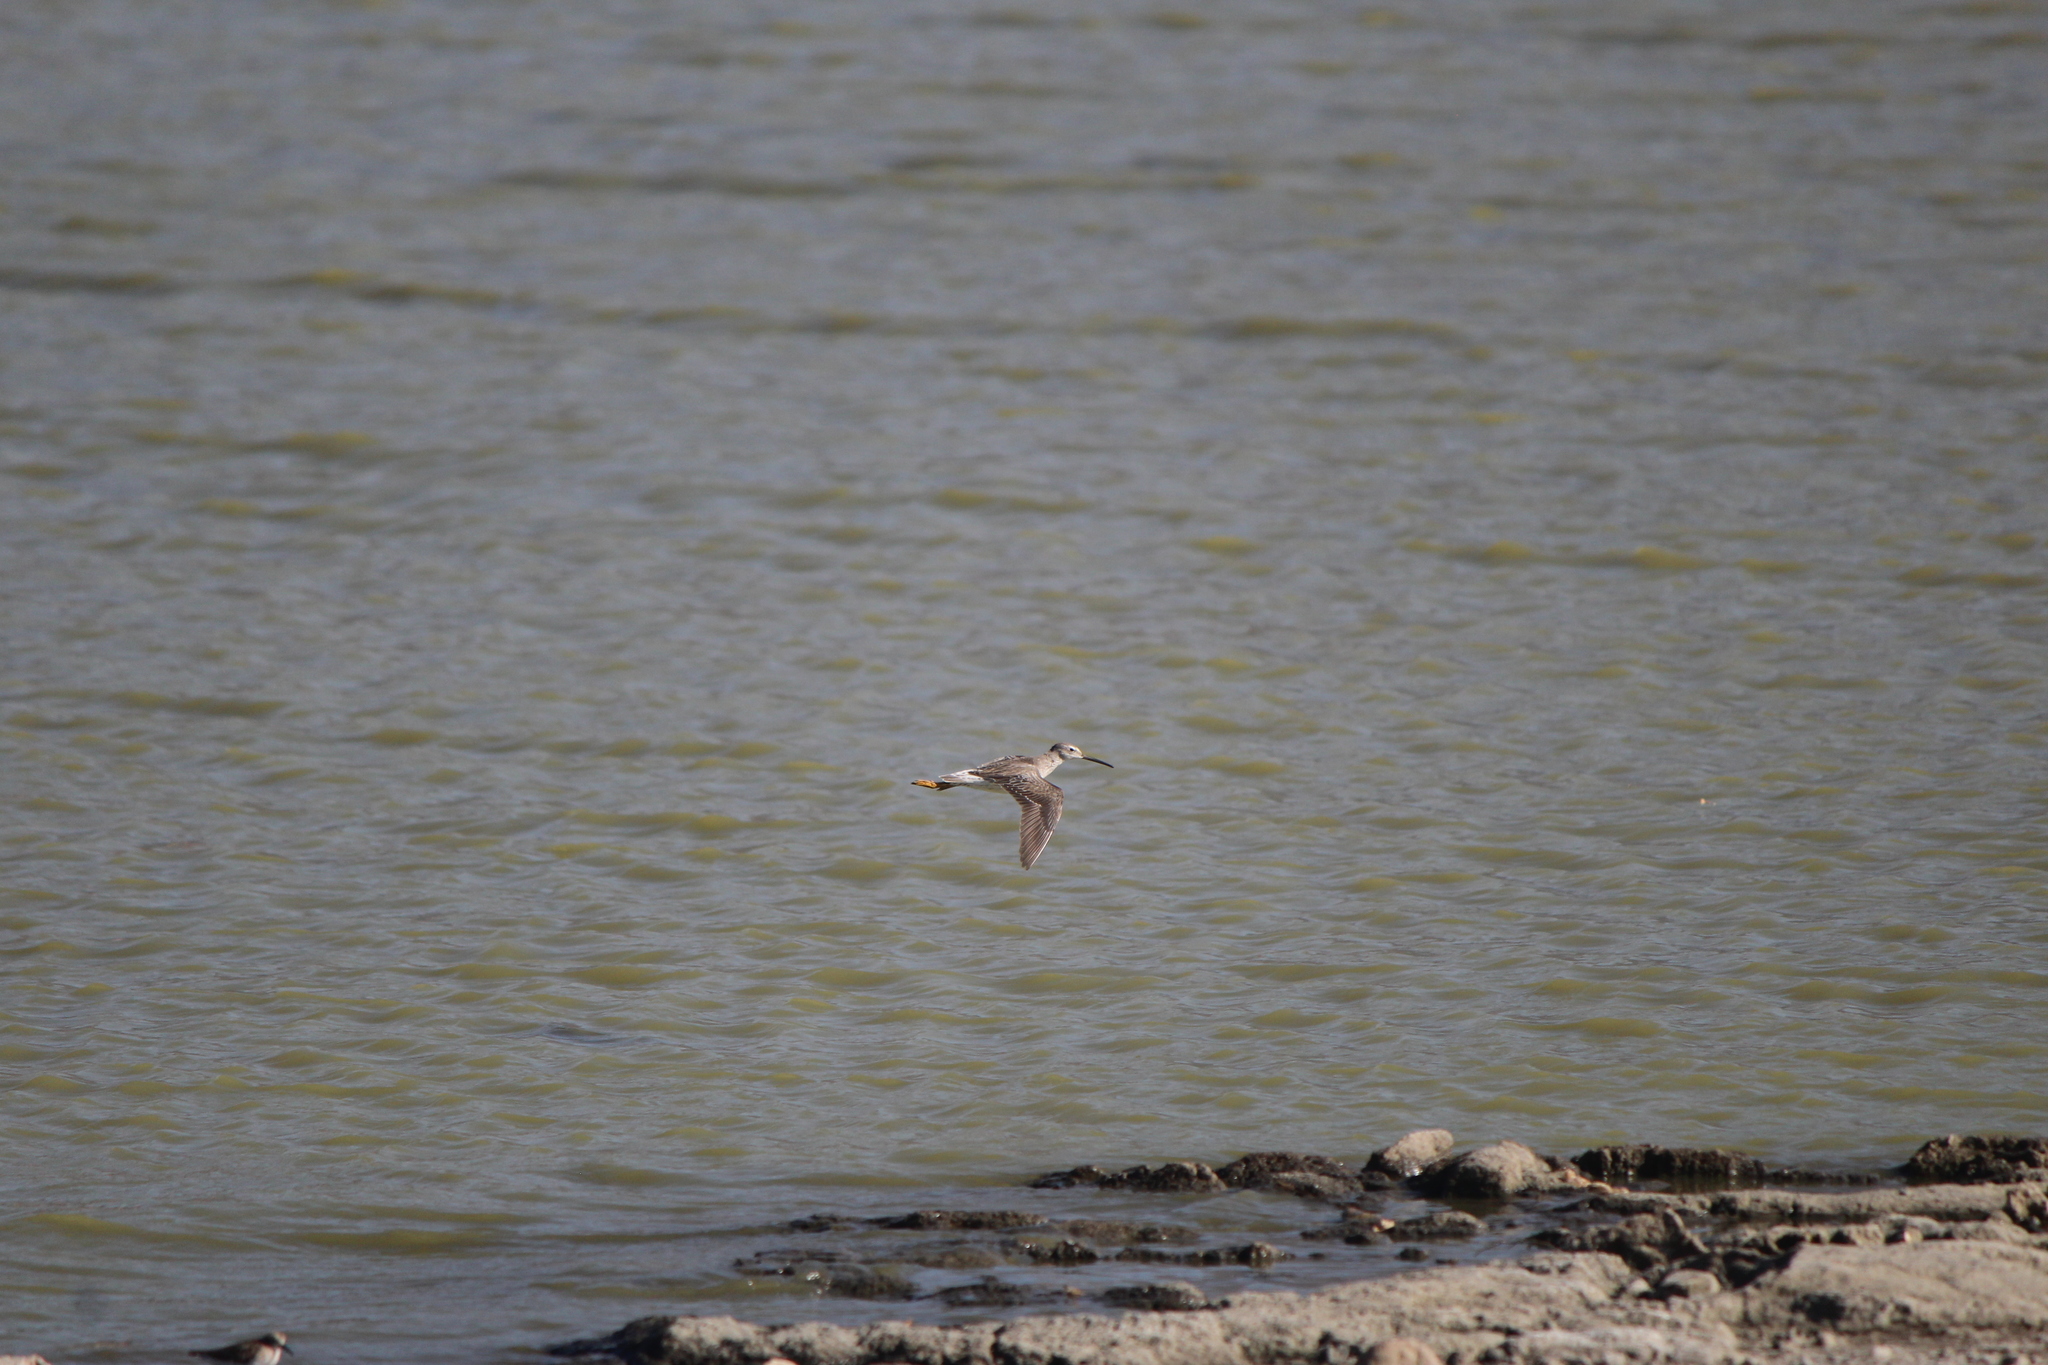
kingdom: Animalia
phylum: Chordata
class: Aves
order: Charadriiformes
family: Scolopacidae
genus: Calidris
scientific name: Calidris himantopus
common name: Stilt sandpiper
